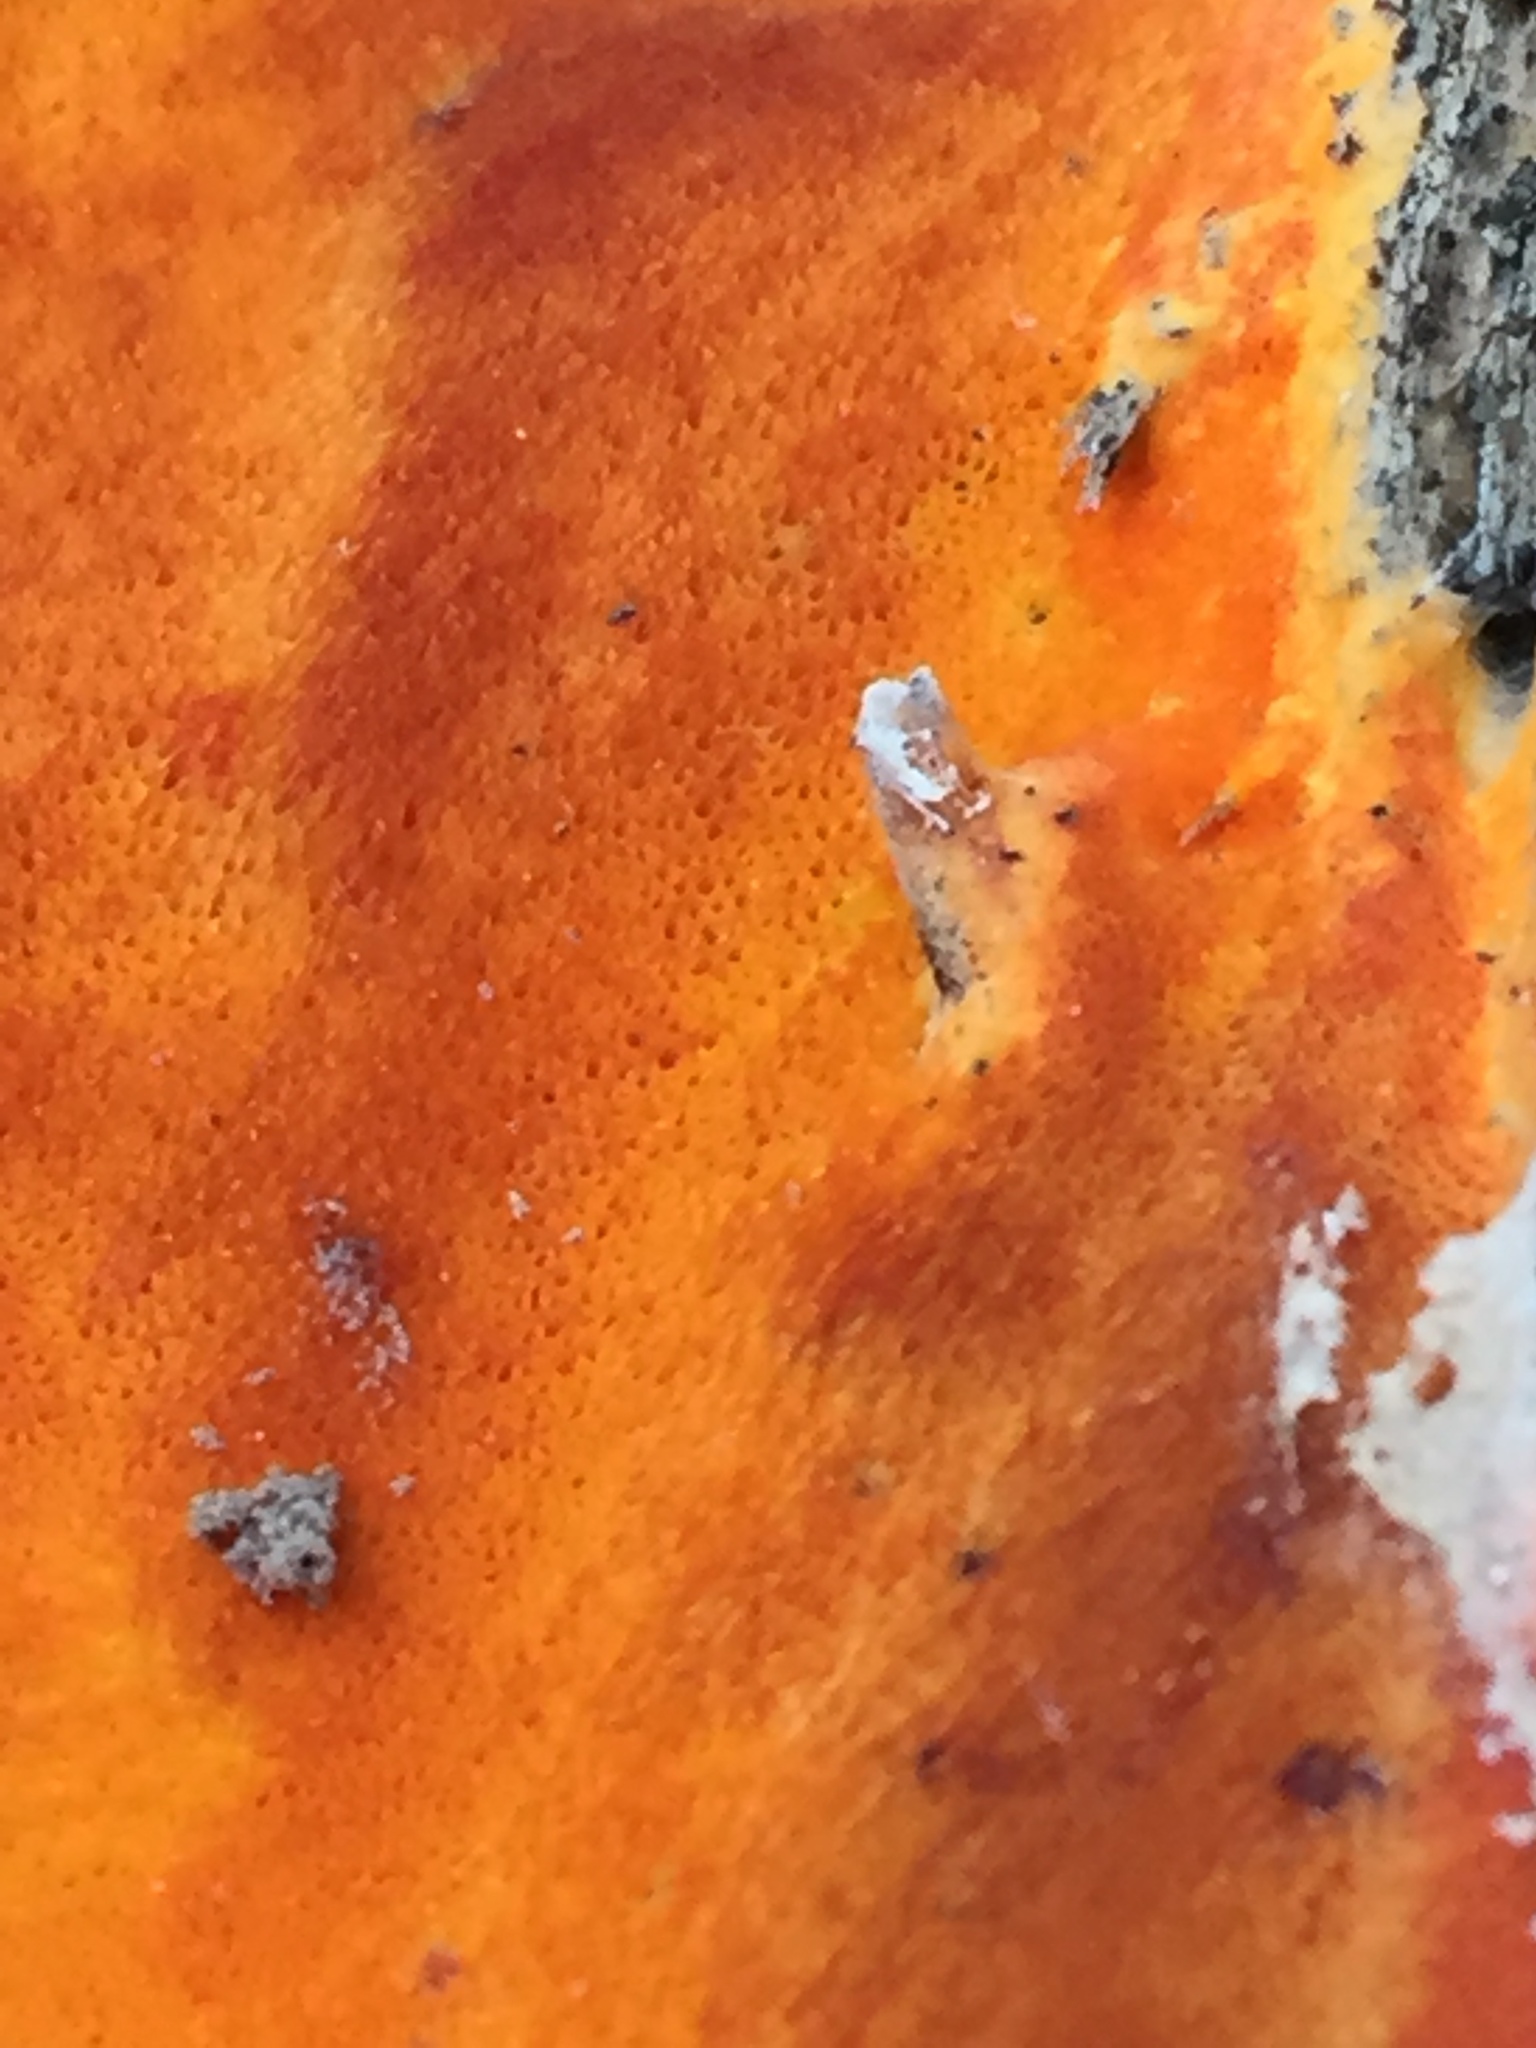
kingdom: Fungi
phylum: Basidiomycota
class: Agaricomycetes
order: Polyporales
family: Irpicaceae
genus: Ceriporia
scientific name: Ceriporia spissa
